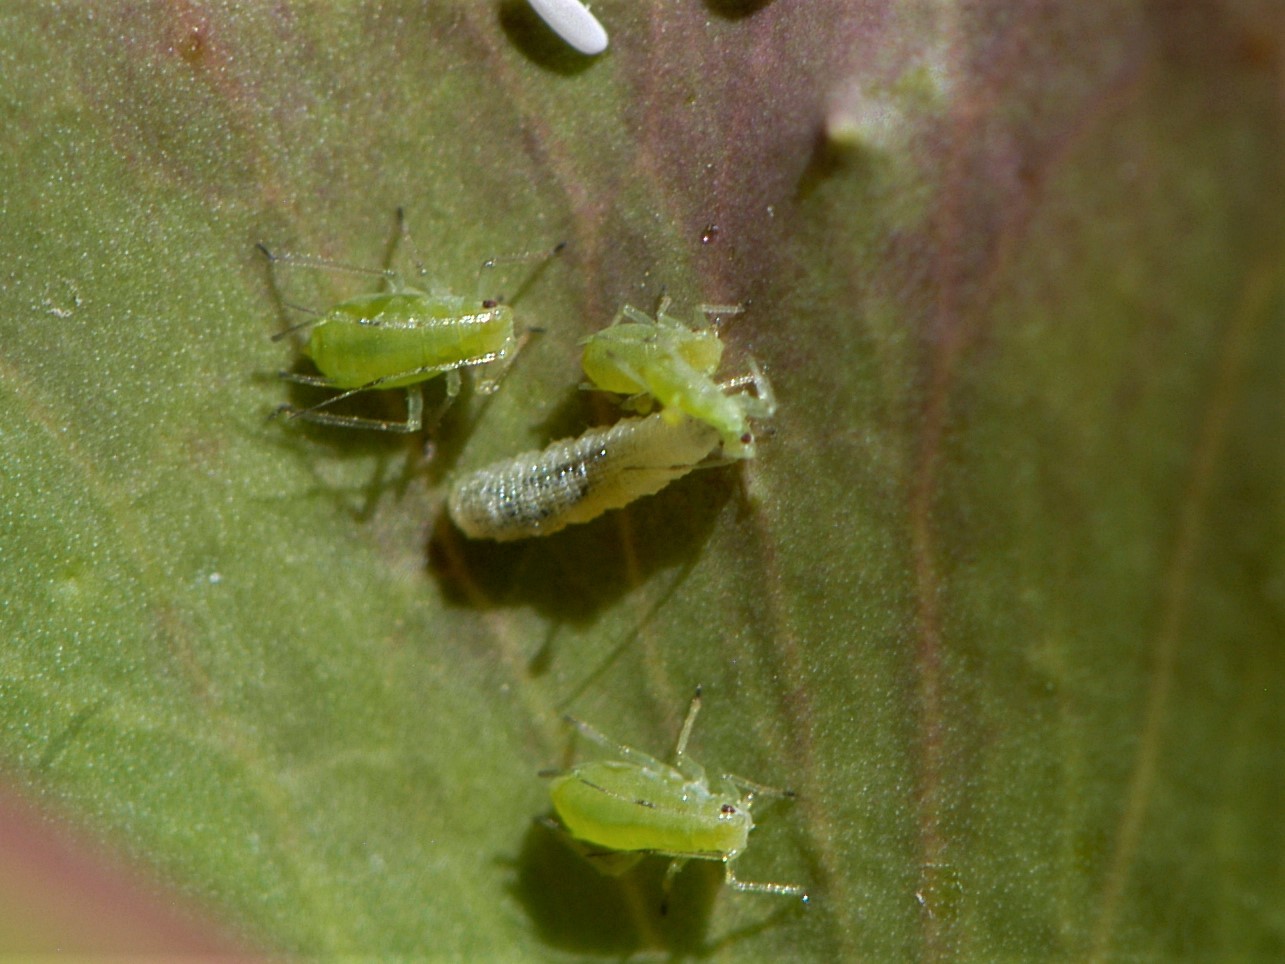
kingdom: Animalia
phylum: Arthropoda
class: Insecta
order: Diptera
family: Syrphidae
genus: Eupeodes
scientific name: Eupeodes volucris
